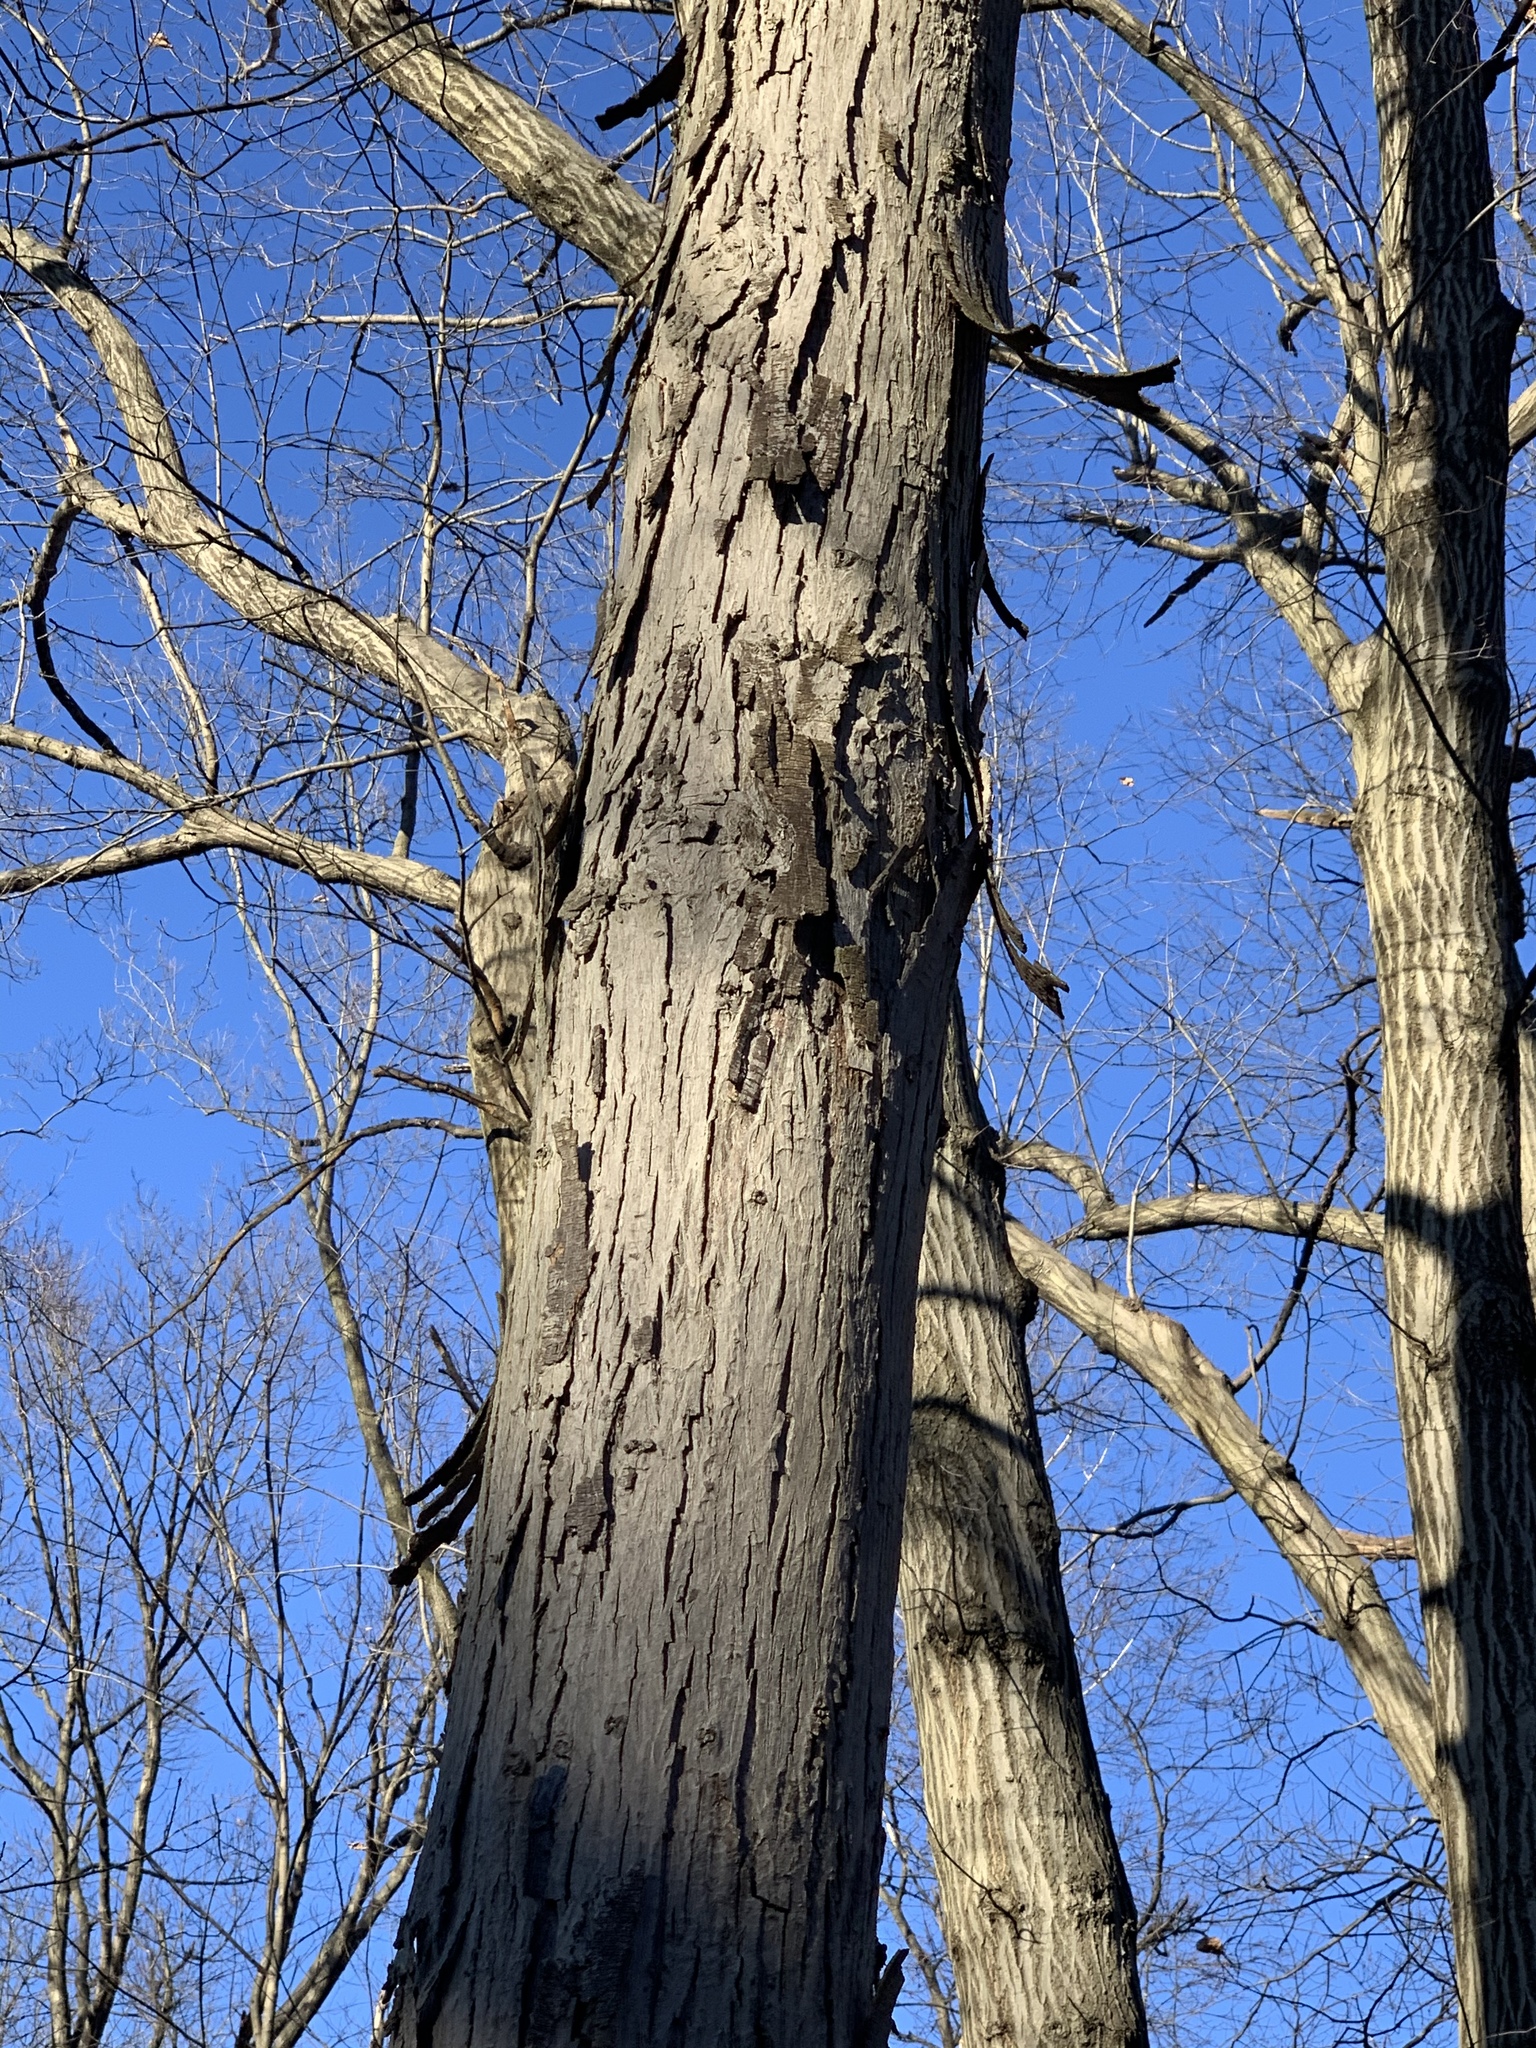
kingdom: Plantae
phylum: Tracheophyta
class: Magnoliopsida
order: Fagales
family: Juglandaceae
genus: Carya
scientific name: Carya ovata
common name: Shagbark hickory
